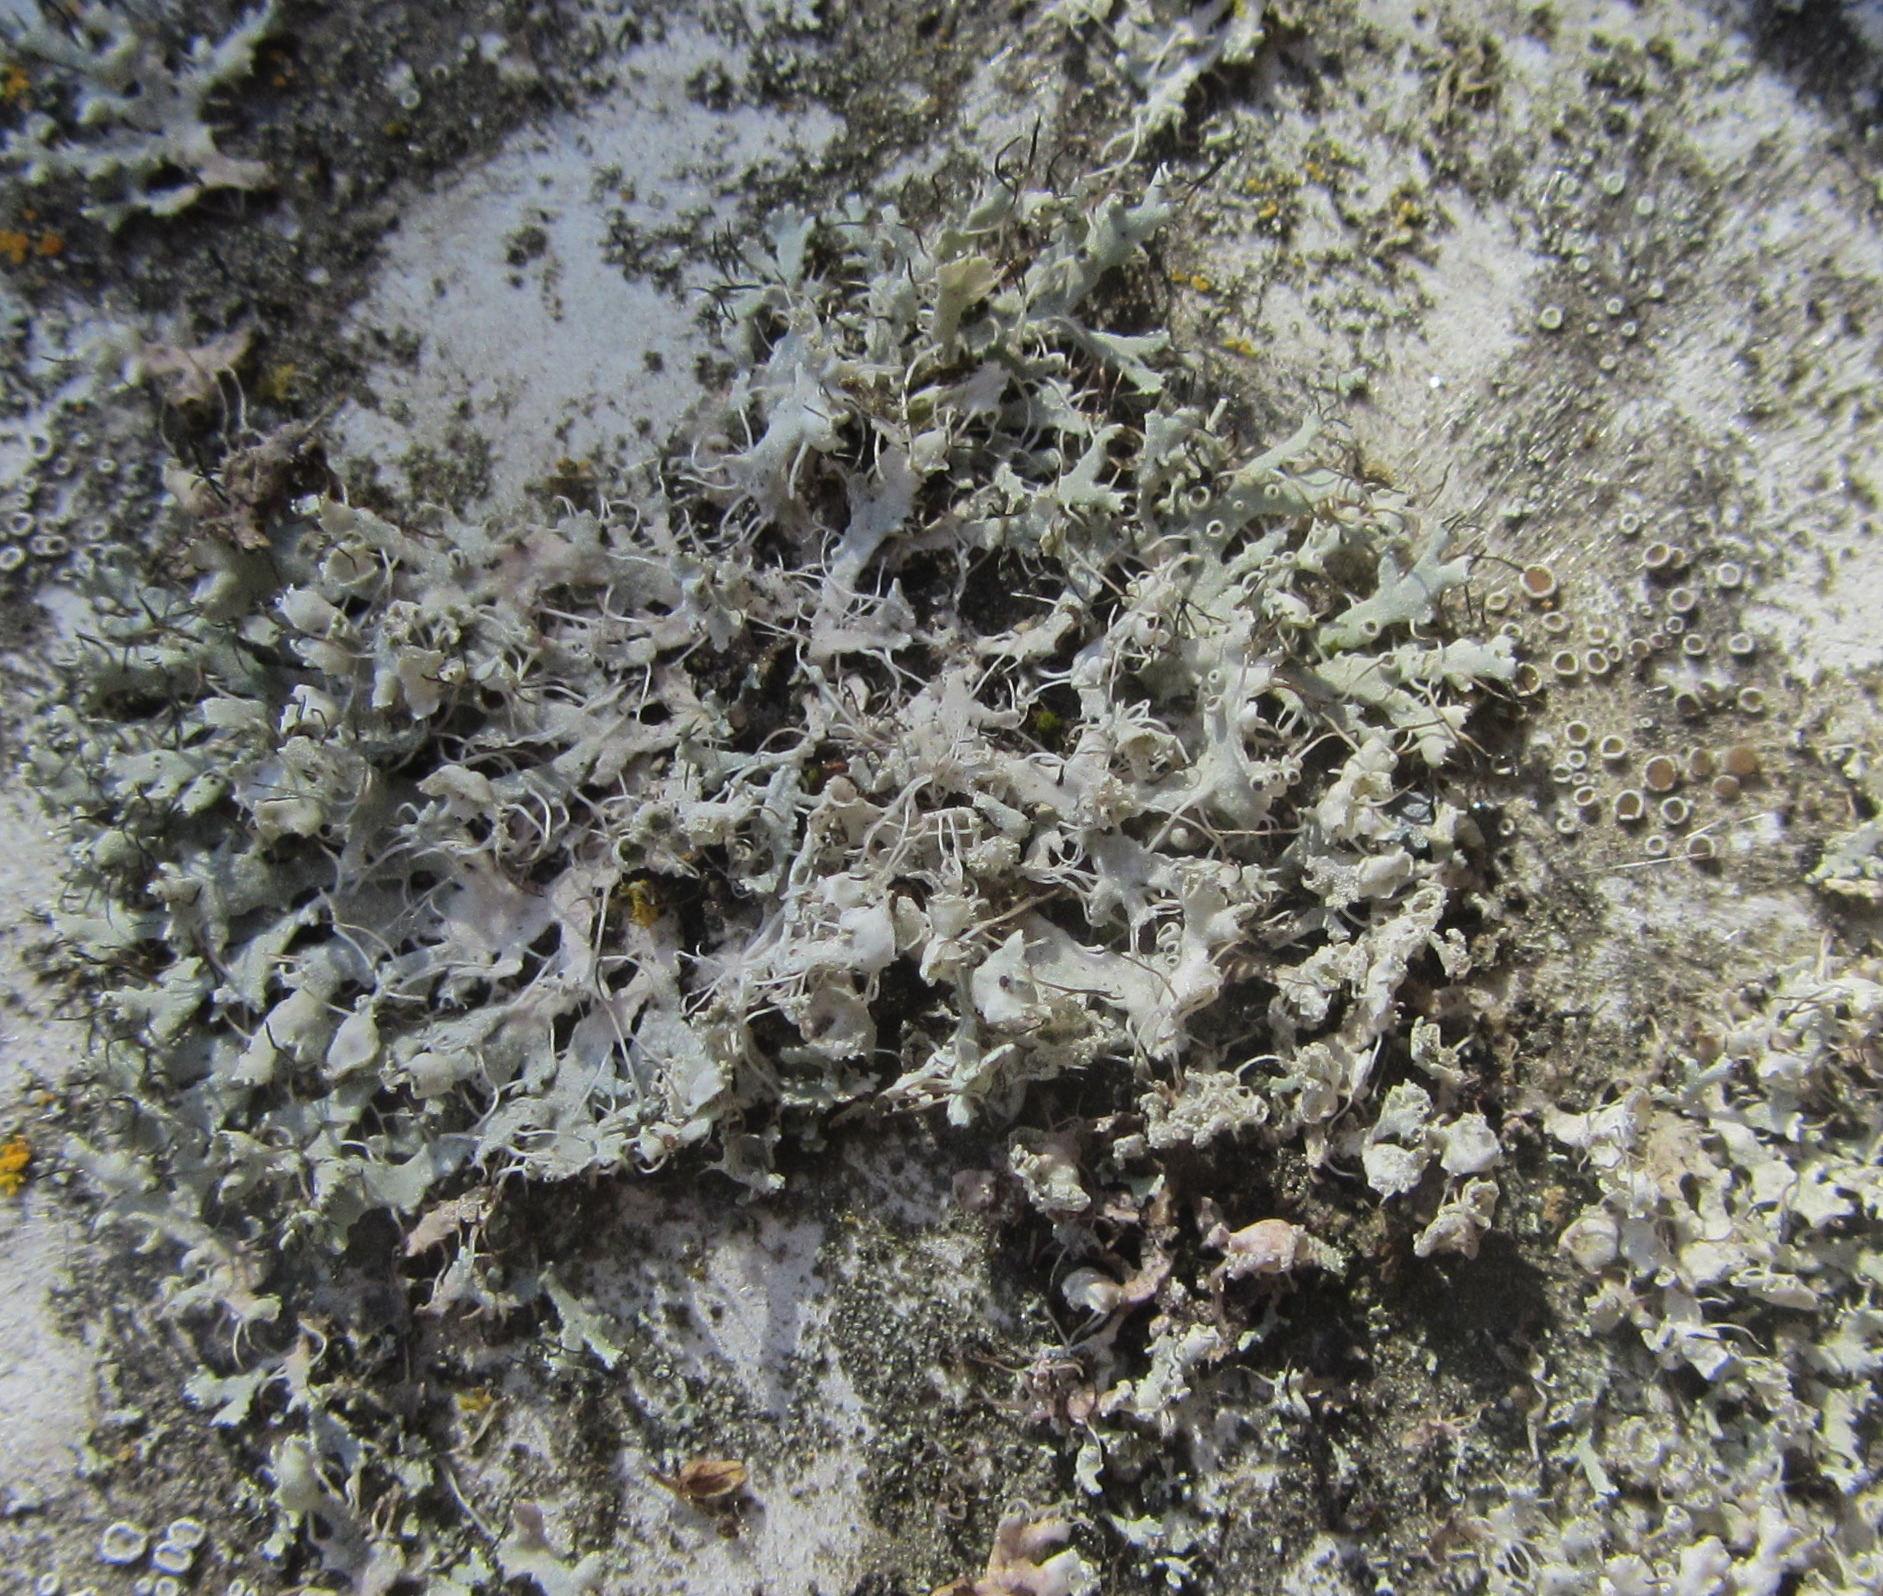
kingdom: Fungi
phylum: Ascomycota
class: Lecanoromycetes
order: Caliciales
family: Physciaceae
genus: Physcia
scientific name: Physcia adscendens
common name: Hooded rosette lichen
